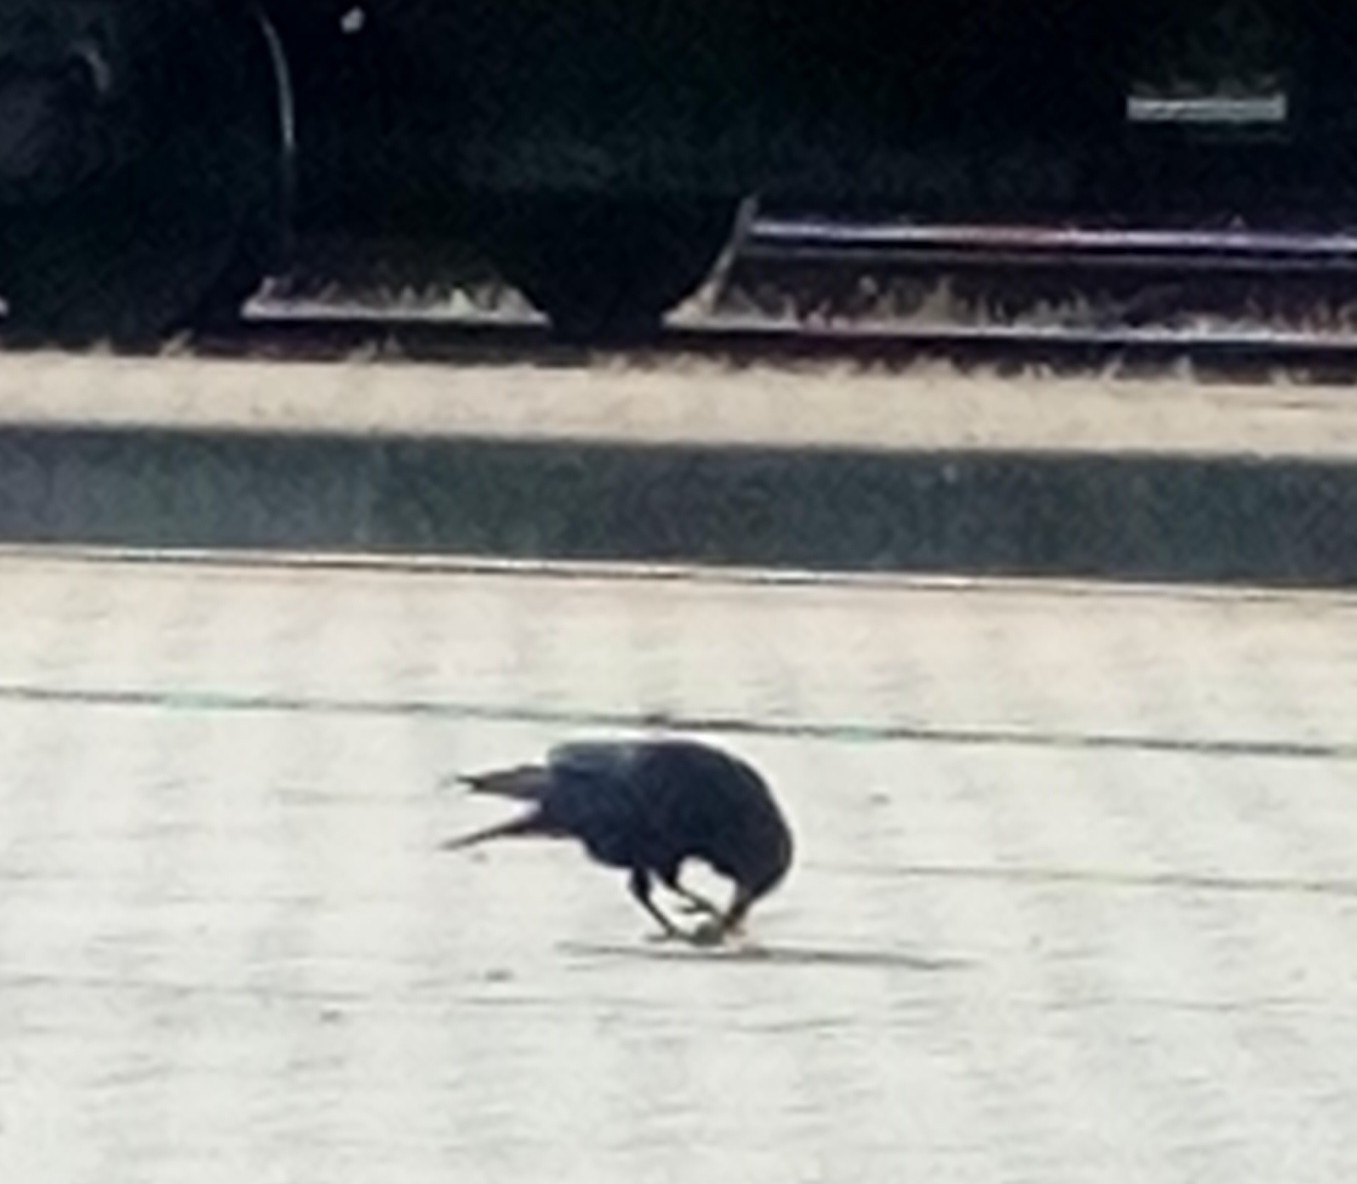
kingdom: Animalia
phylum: Chordata
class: Aves
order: Passeriformes
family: Corvidae
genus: Corvus
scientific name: Corvus frugilegus
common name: Rook
